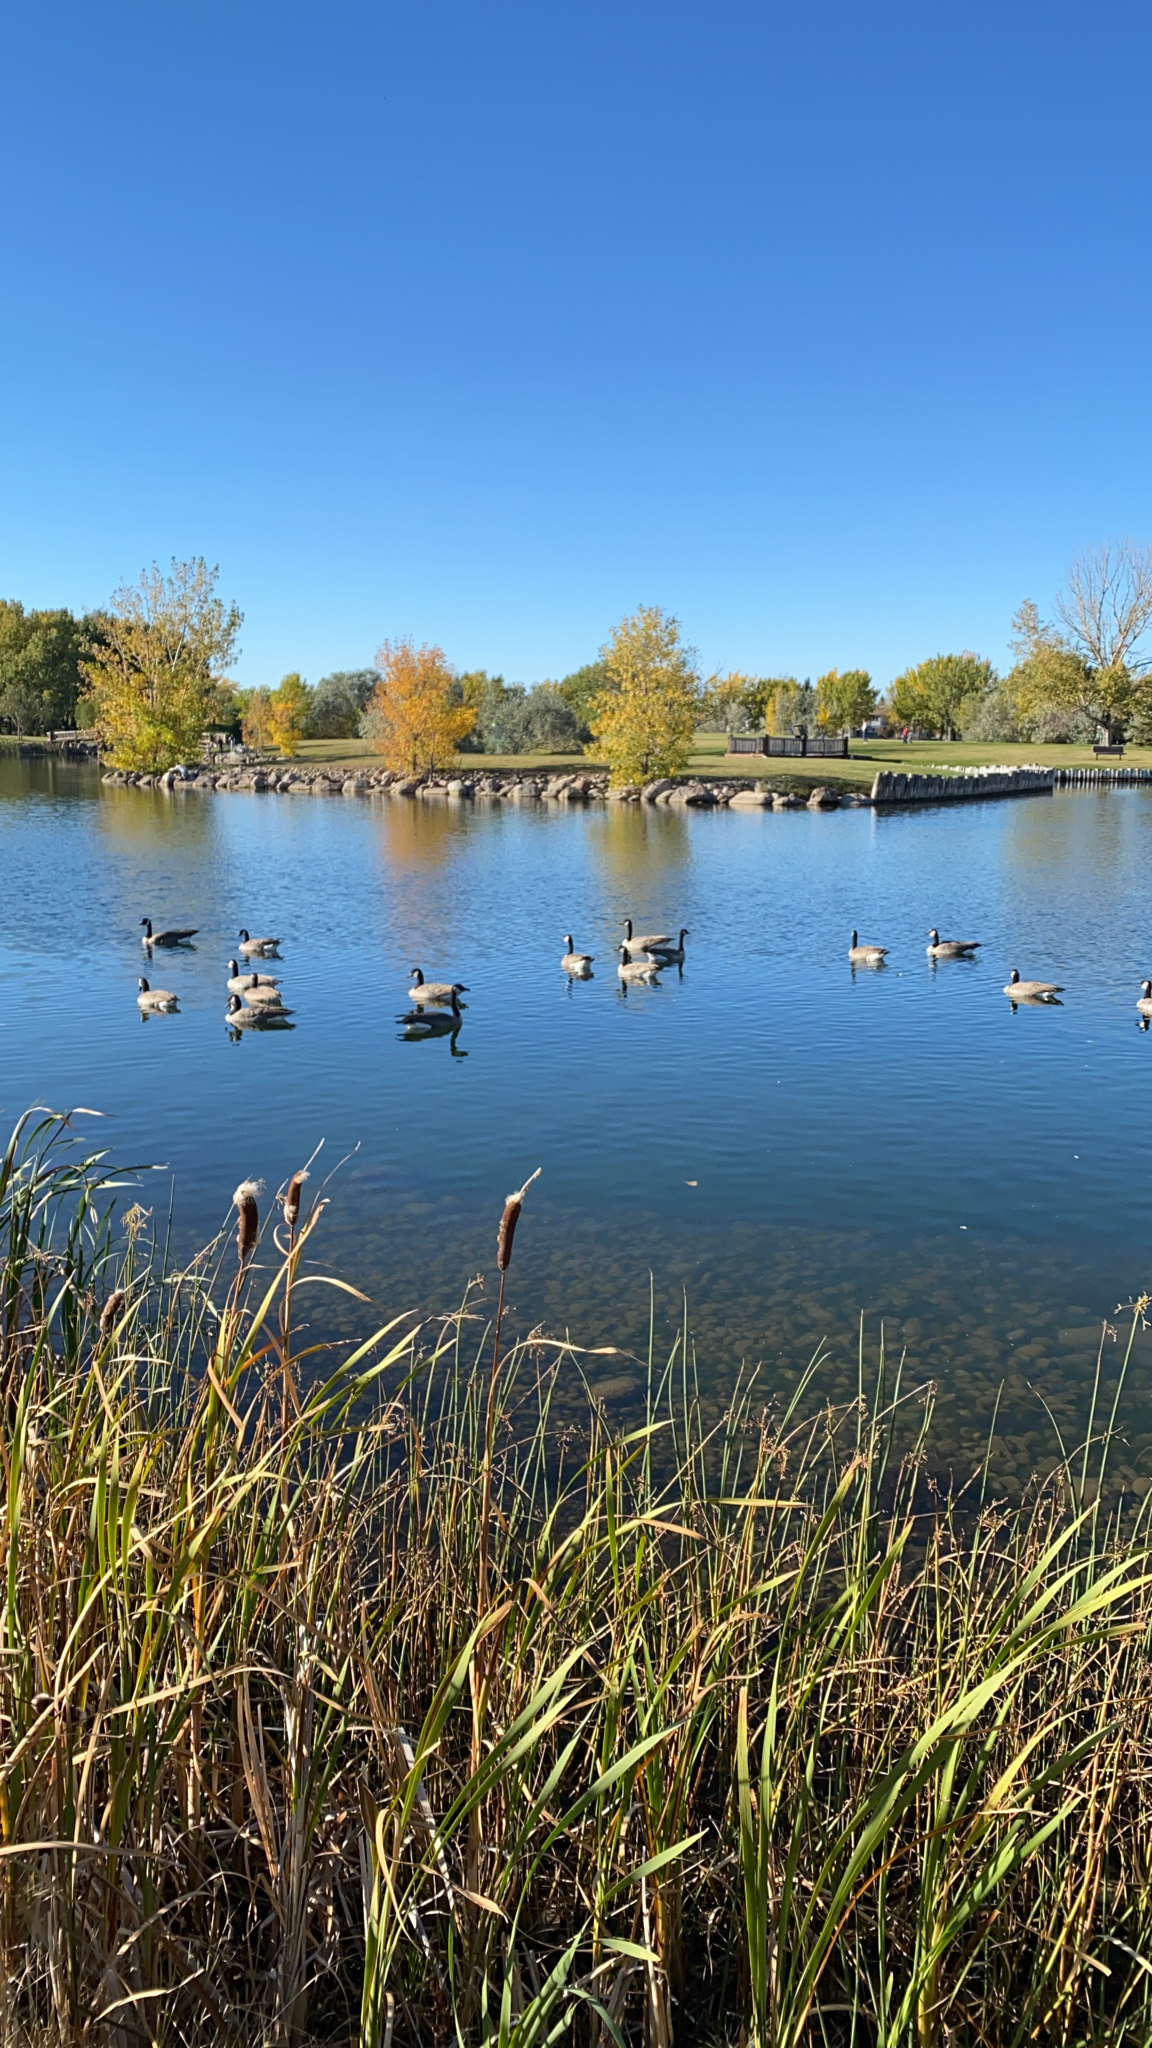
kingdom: Animalia
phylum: Chordata
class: Aves
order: Anseriformes
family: Anatidae
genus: Branta
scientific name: Branta canadensis
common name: Canada goose
